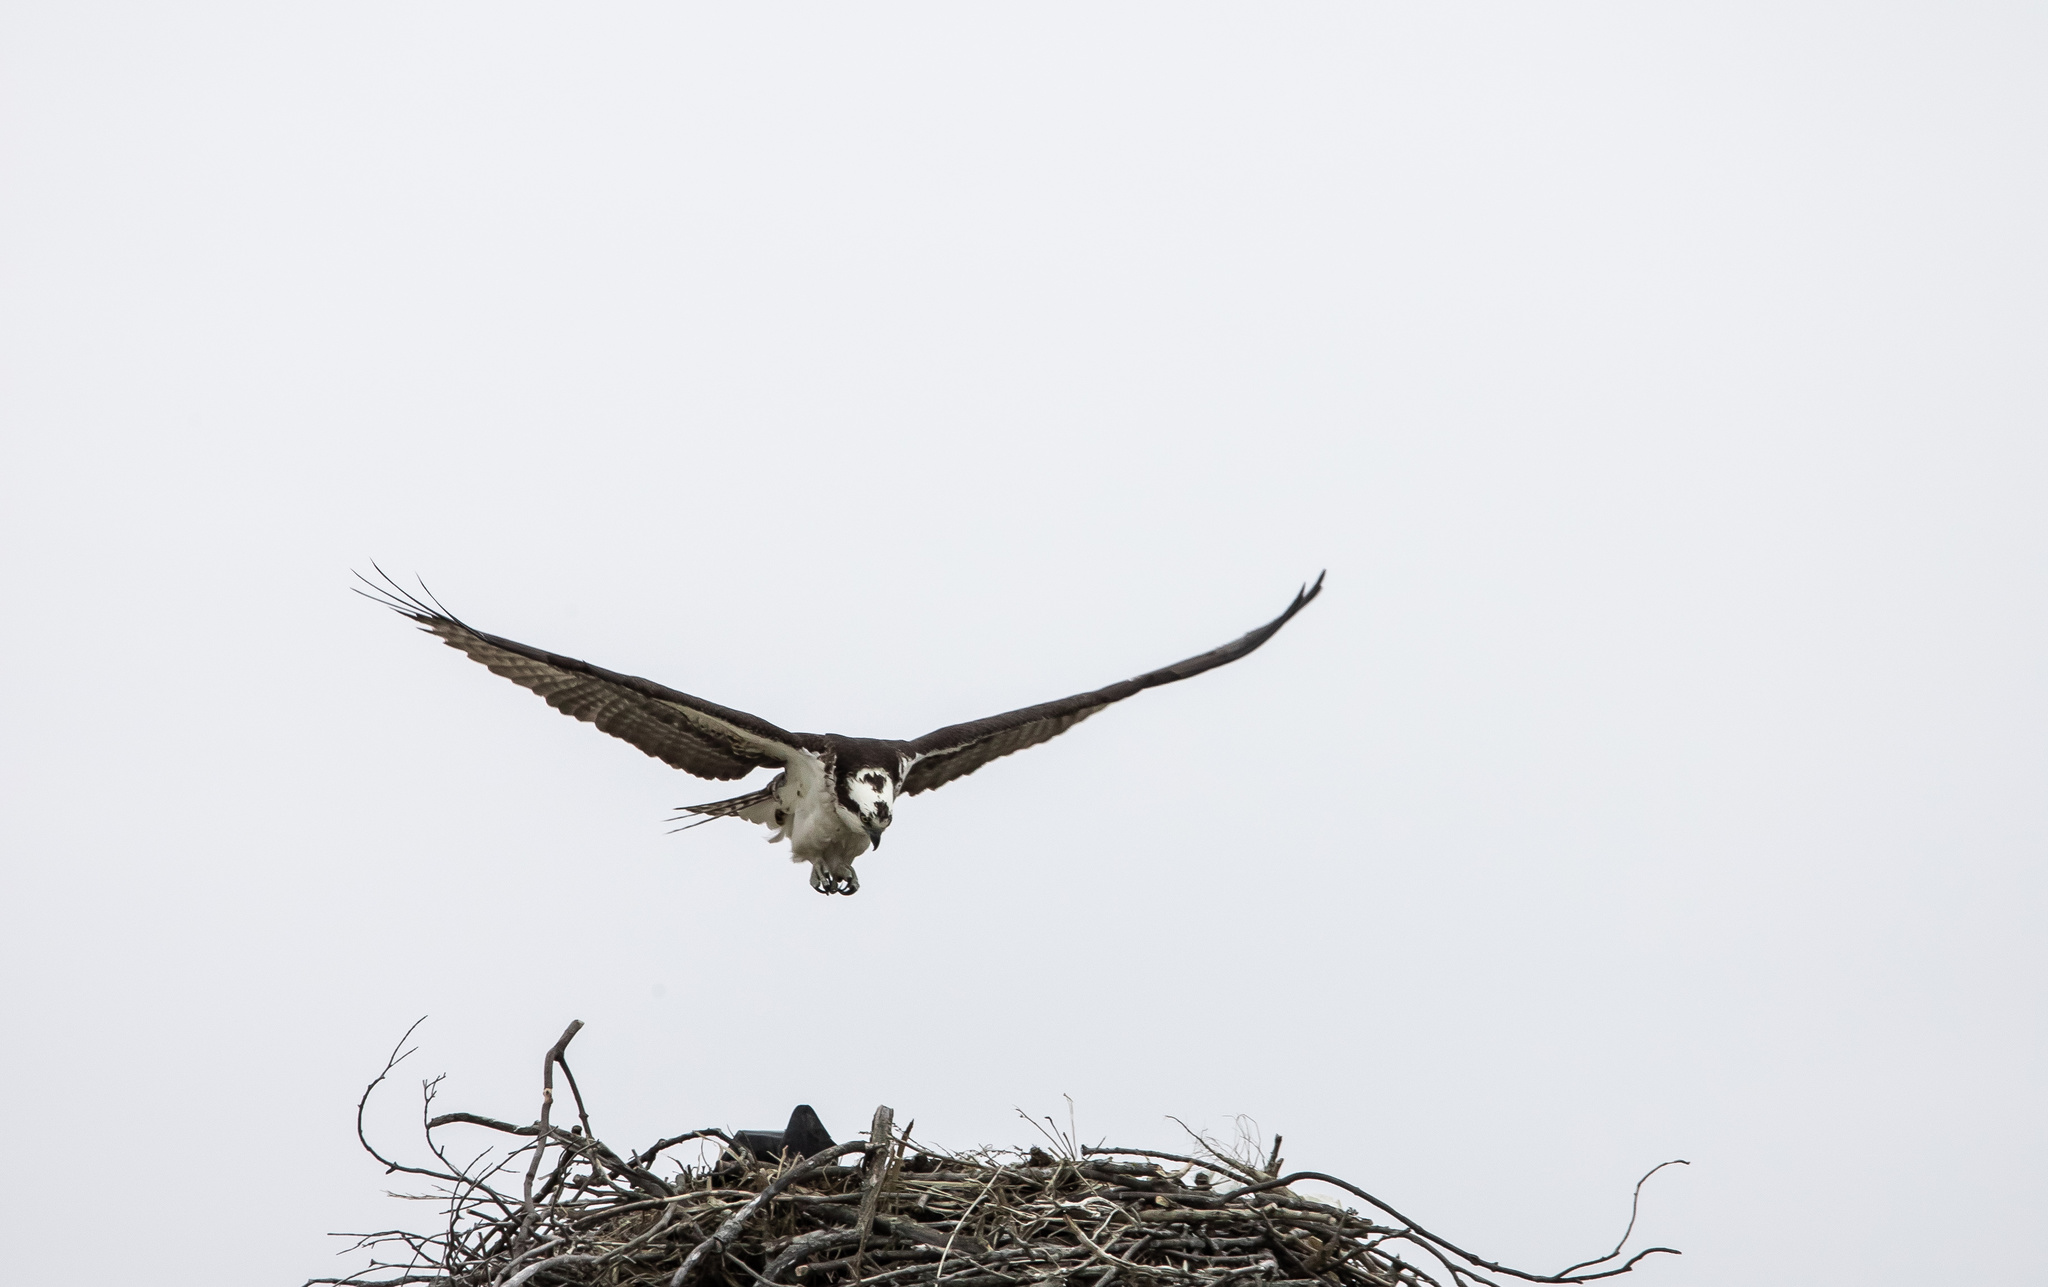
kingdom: Animalia
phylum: Chordata
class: Aves
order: Accipitriformes
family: Pandionidae
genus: Pandion
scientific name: Pandion haliaetus
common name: Osprey
